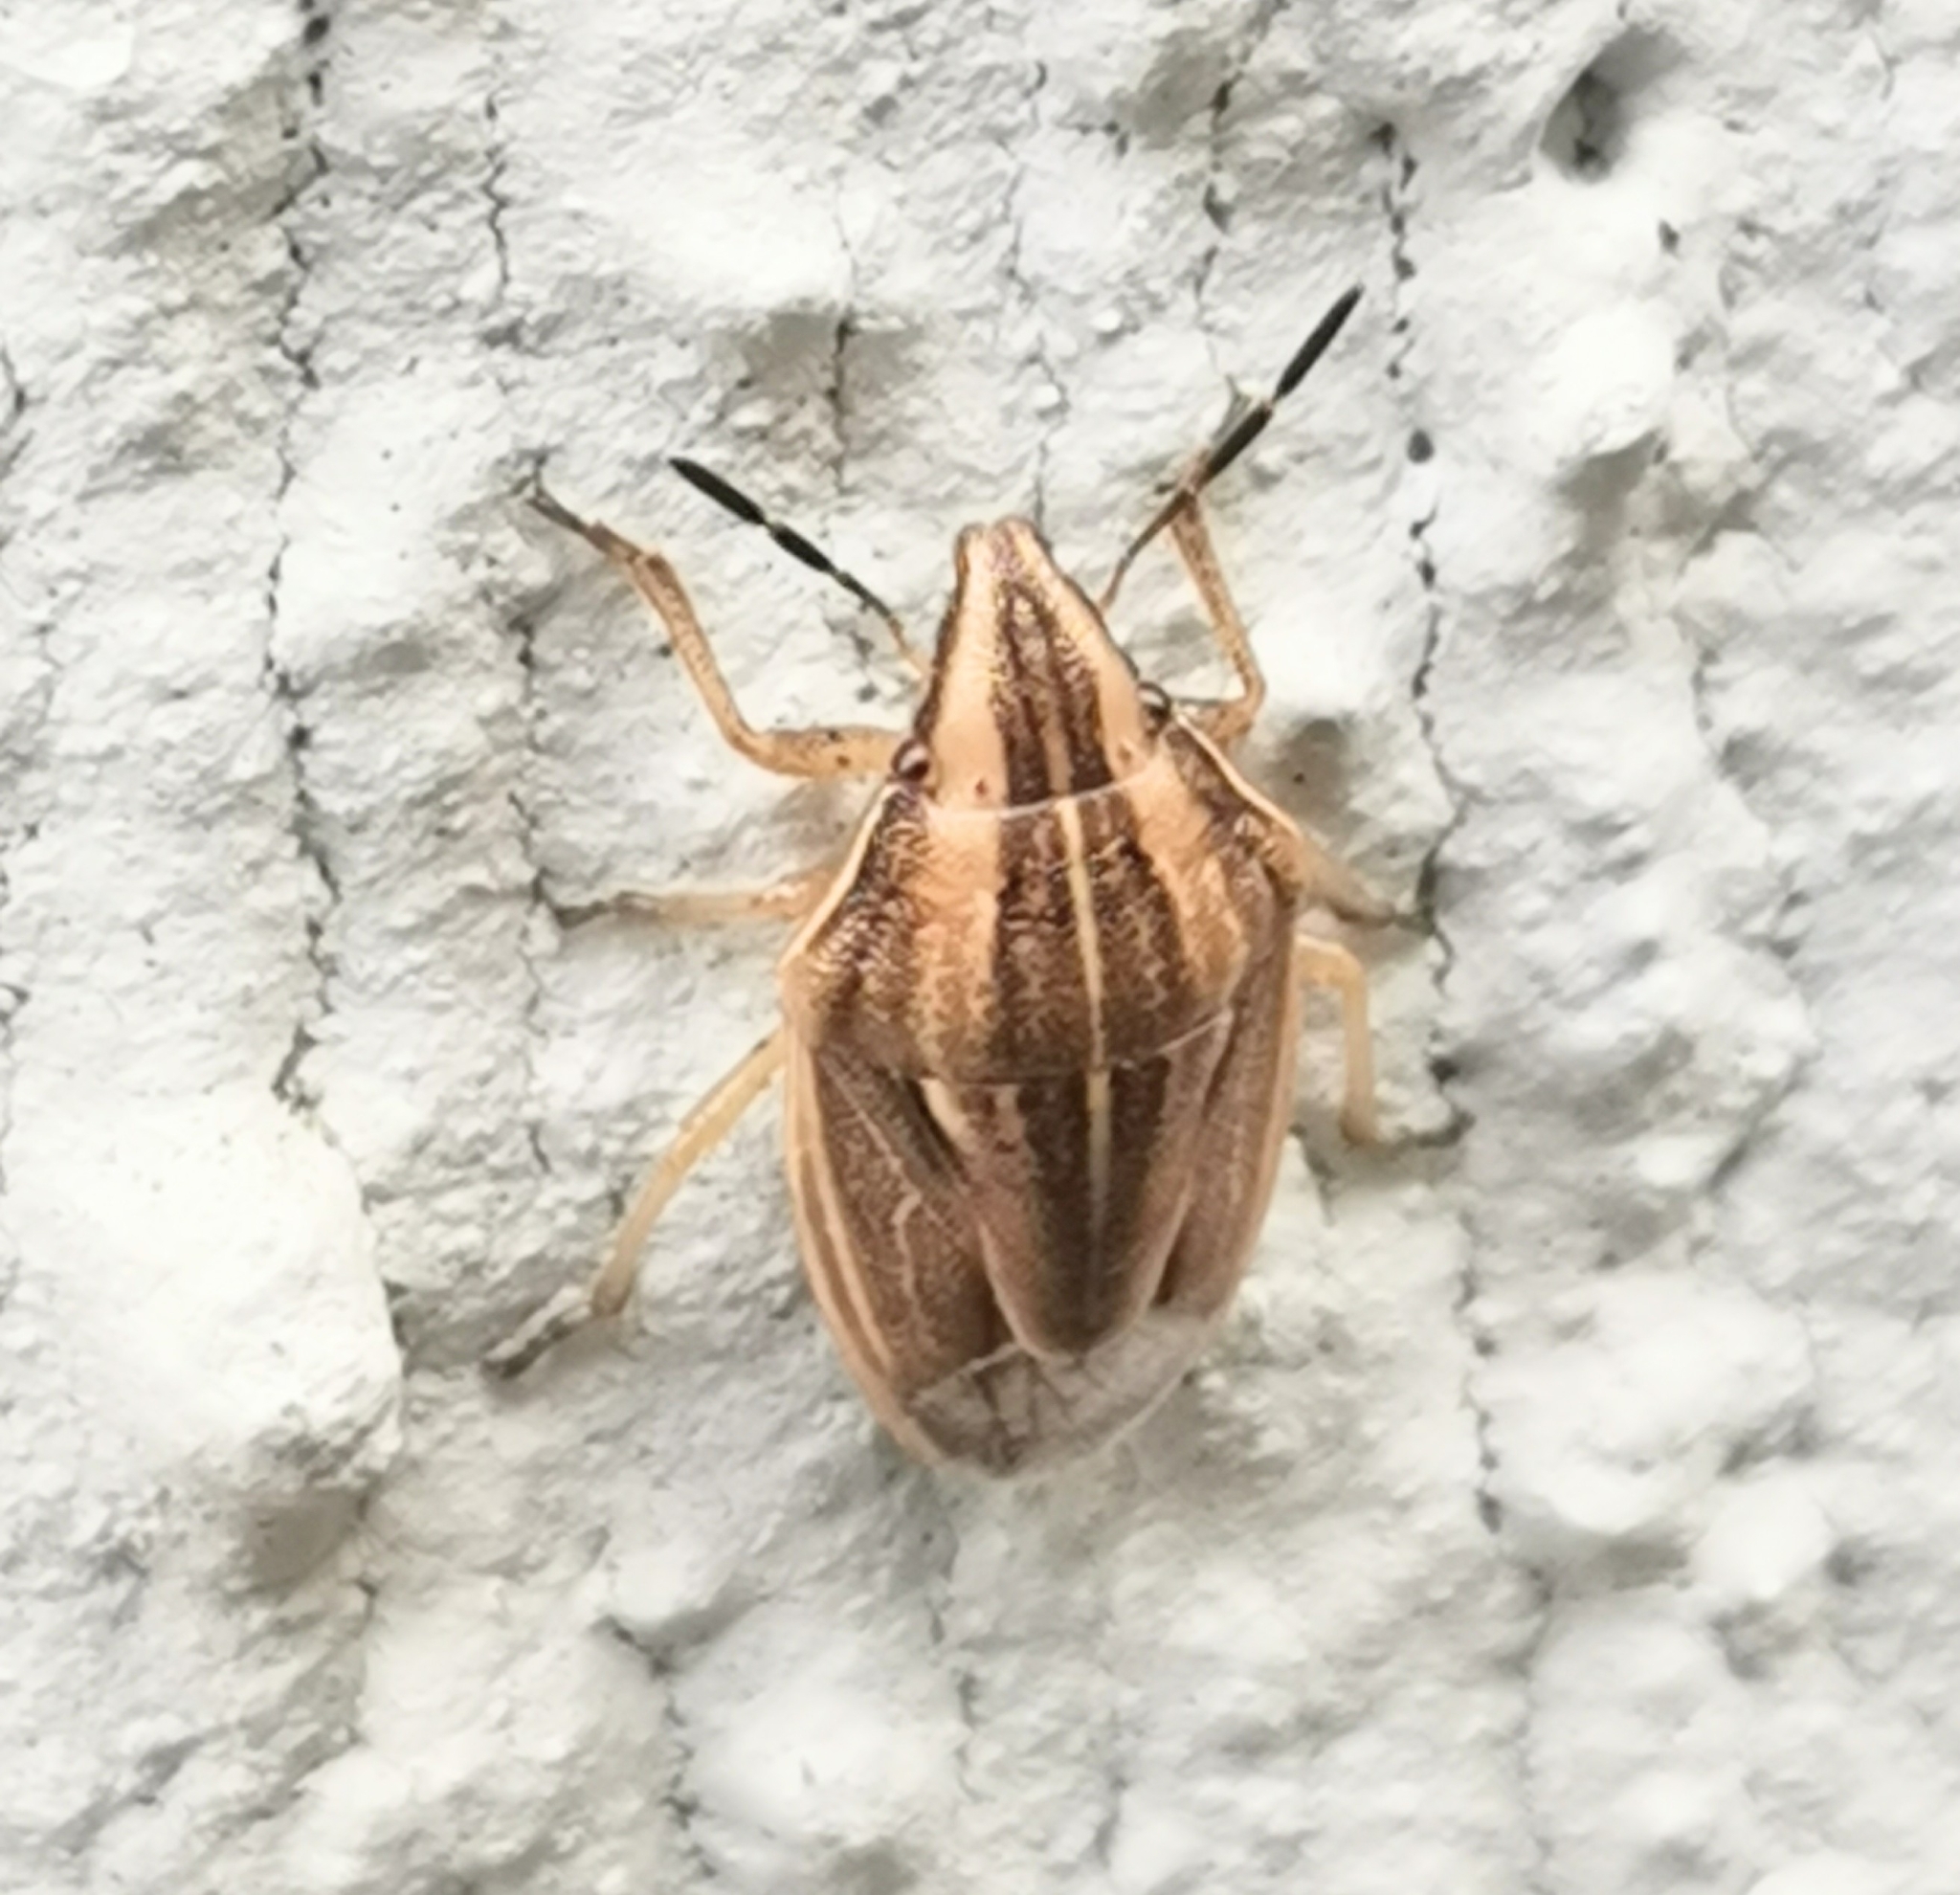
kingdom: Animalia
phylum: Arthropoda
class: Insecta
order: Hemiptera
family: Pentatomidae
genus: Aelia
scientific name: Aelia acuminata
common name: Bishop's mitre
